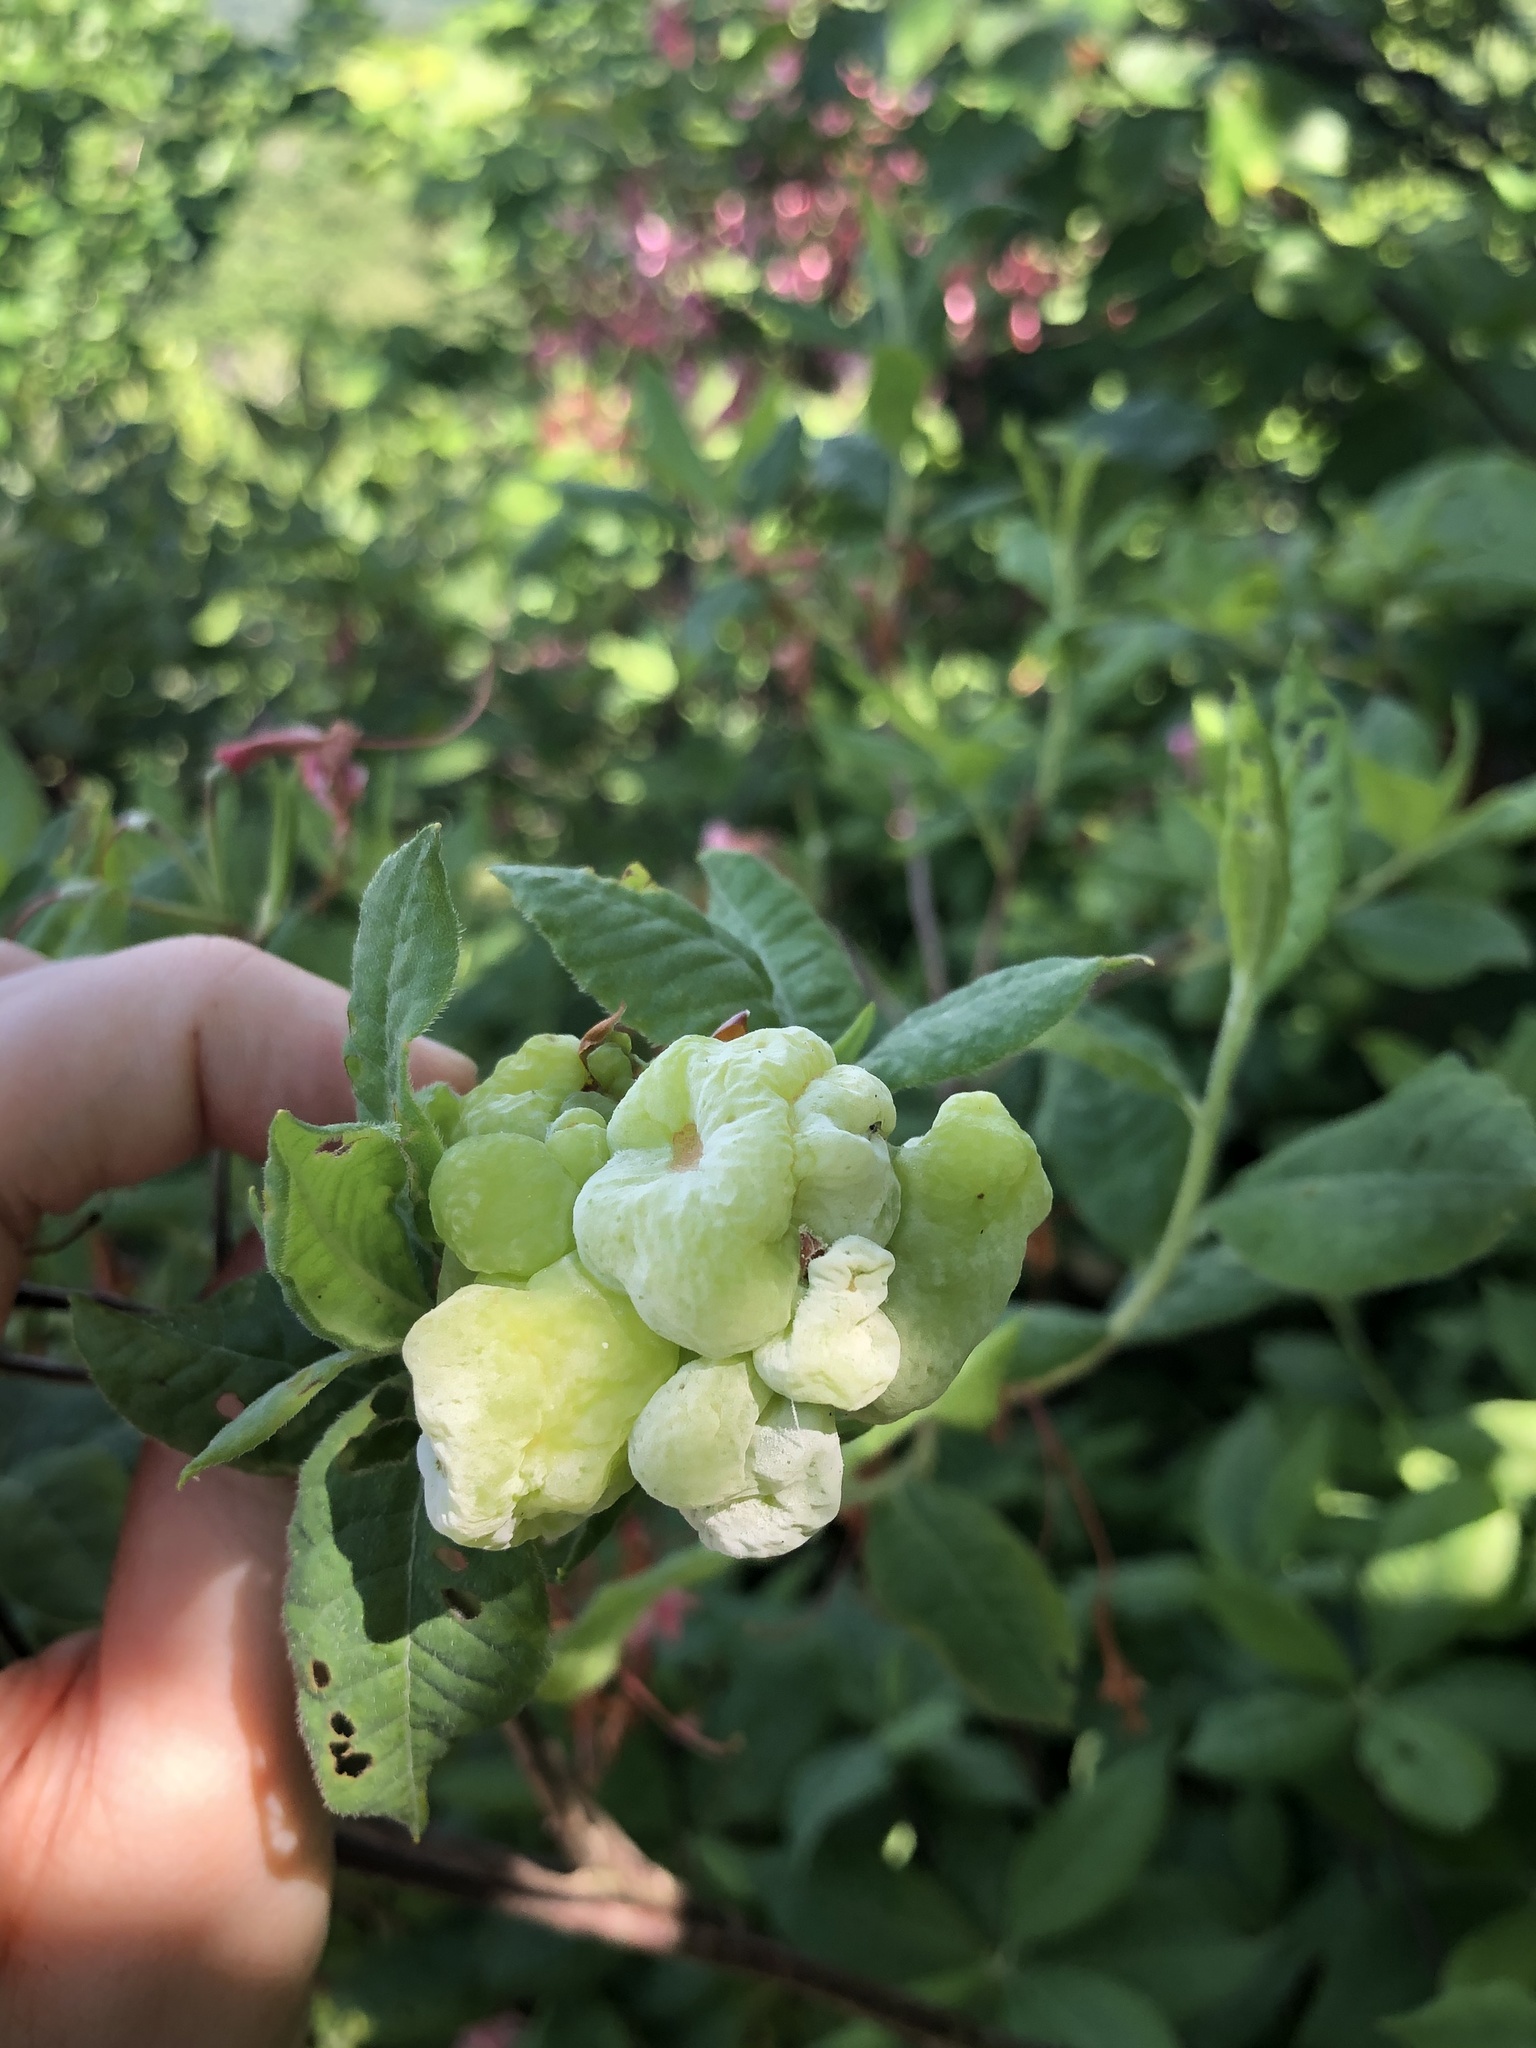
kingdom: Fungi
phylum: Basidiomycota
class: Exobasidiomycetes
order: Exobasidiales
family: Exobasidiaceae
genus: Exobasidium
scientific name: Exobasidium vaccinii
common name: Cowberry redleaf
